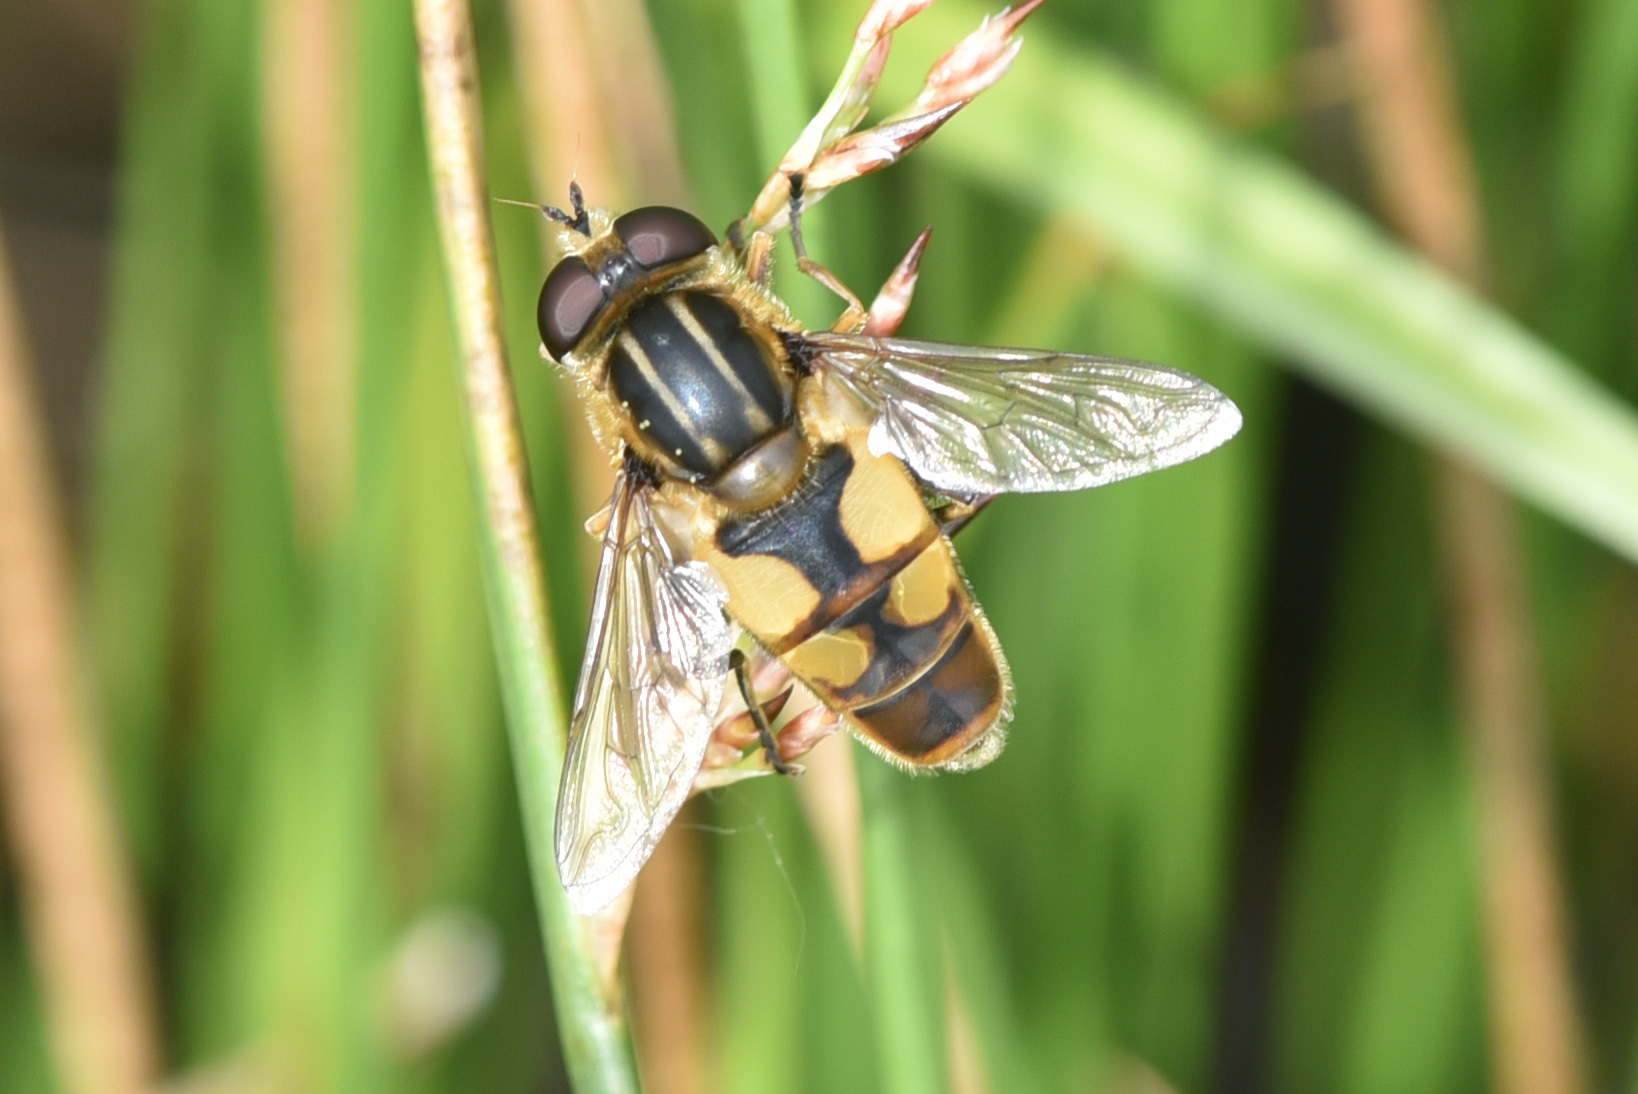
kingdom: Animalia
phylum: Arthropoda
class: Insecta
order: Diptera
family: Syrphidae
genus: Helophilus
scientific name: Helophilus hybridus
